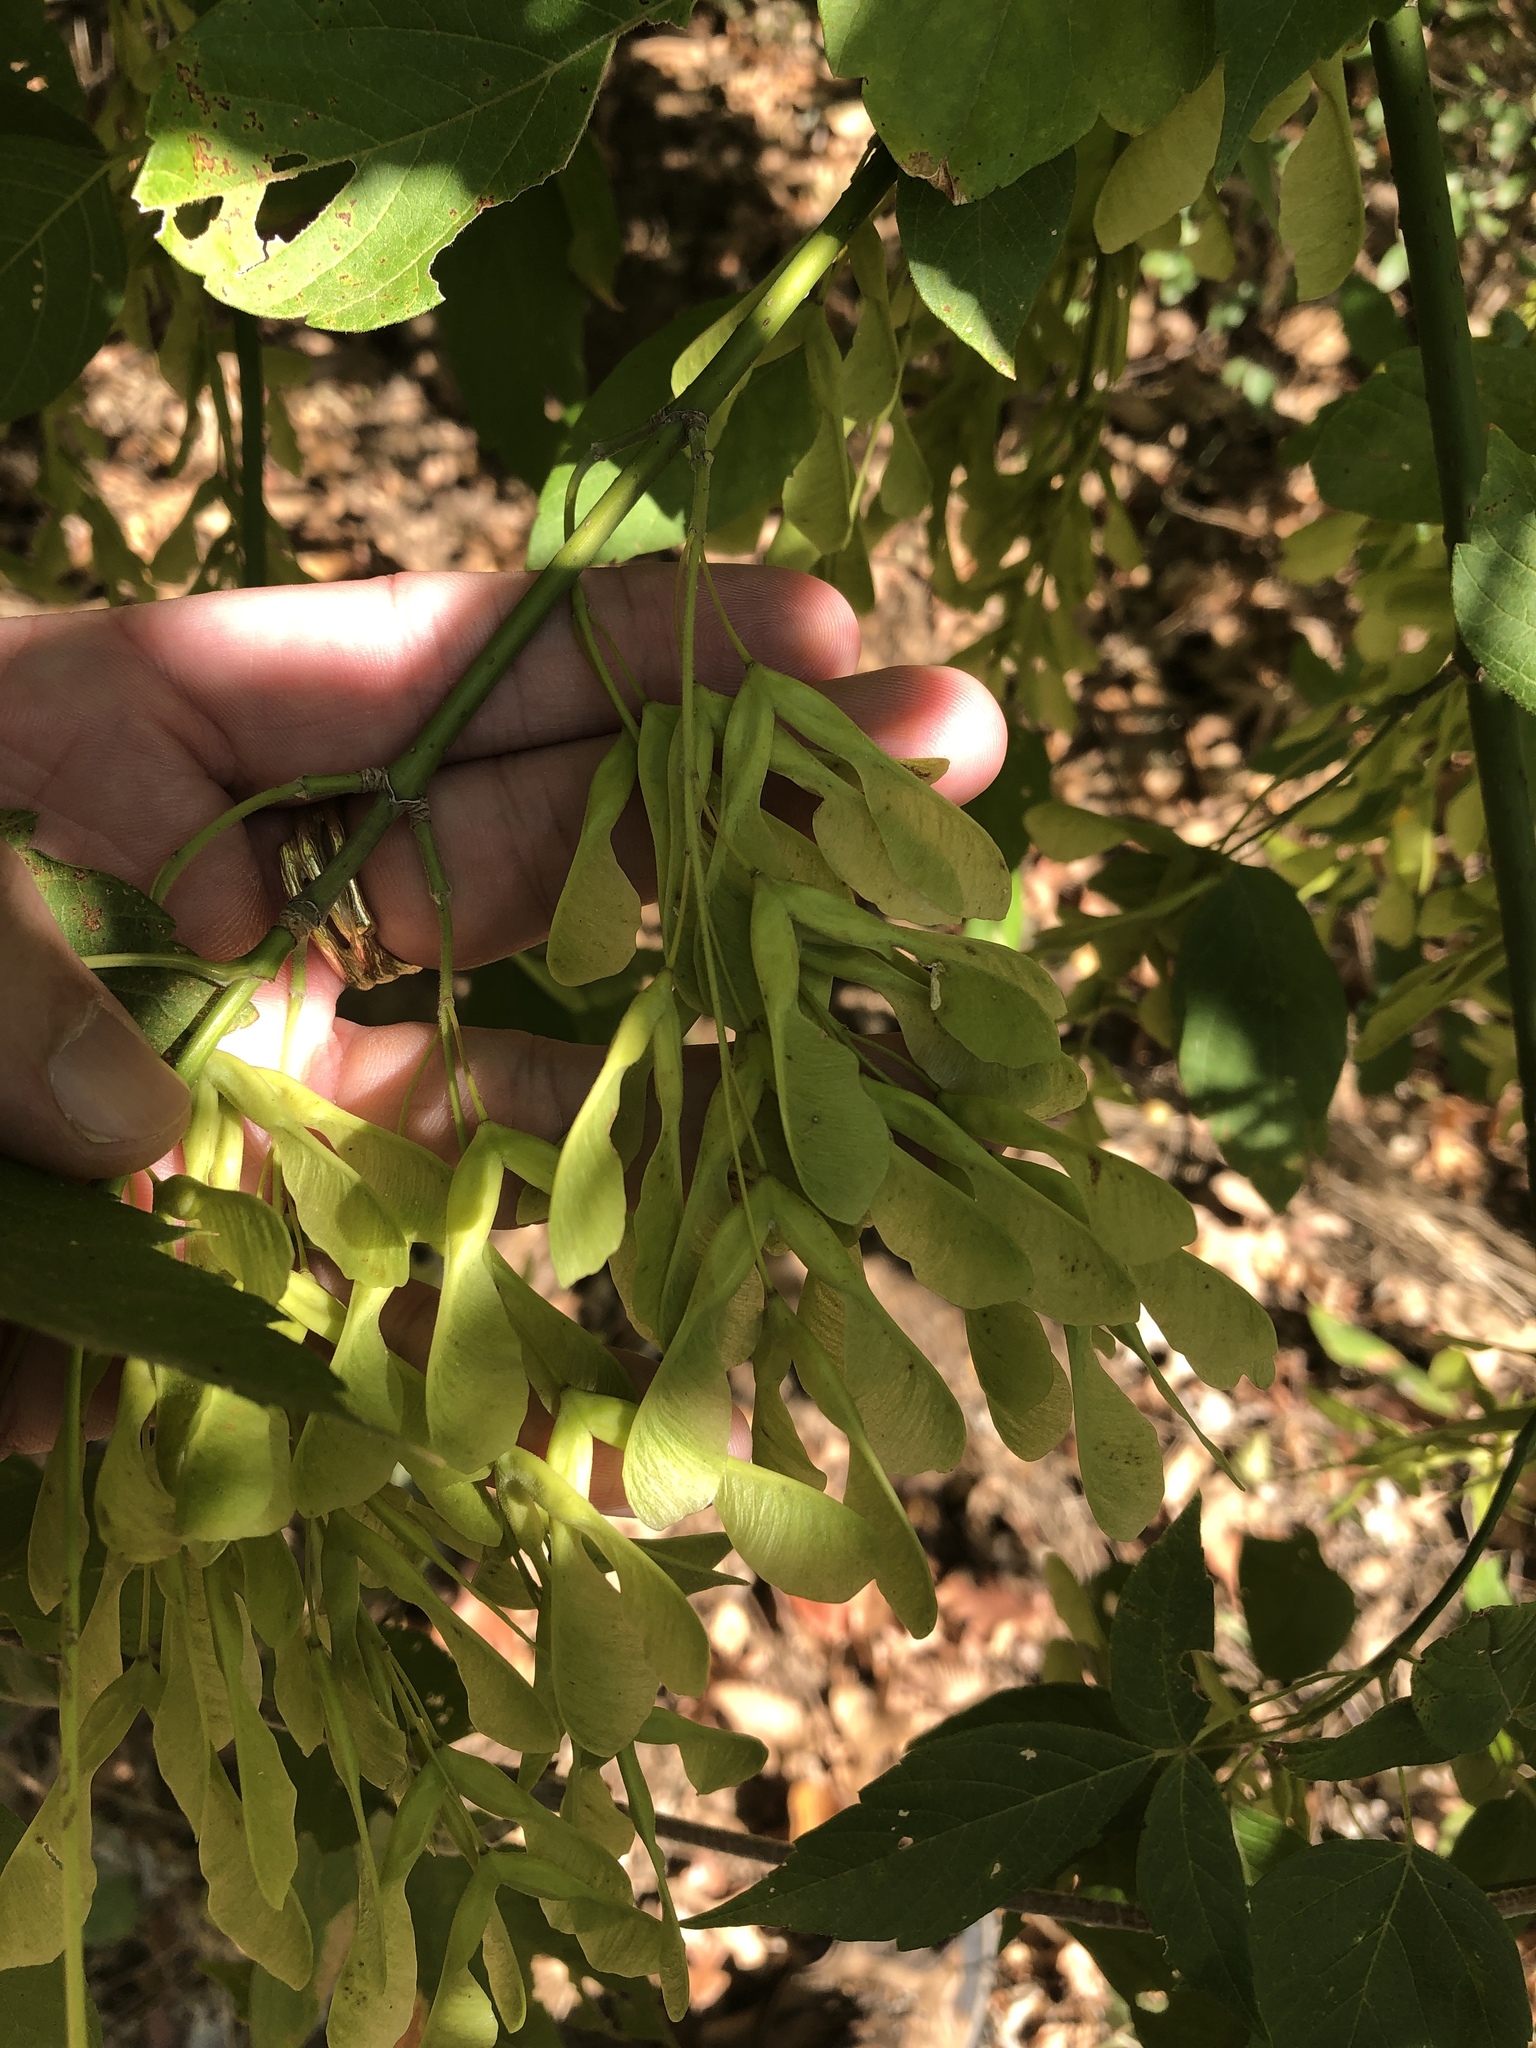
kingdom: Plantae
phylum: Tracheophyta
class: Magnoliopsida
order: Sapindales
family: Sapindaceae
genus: Acer
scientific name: Acer negundo
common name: Ashleaf maple
